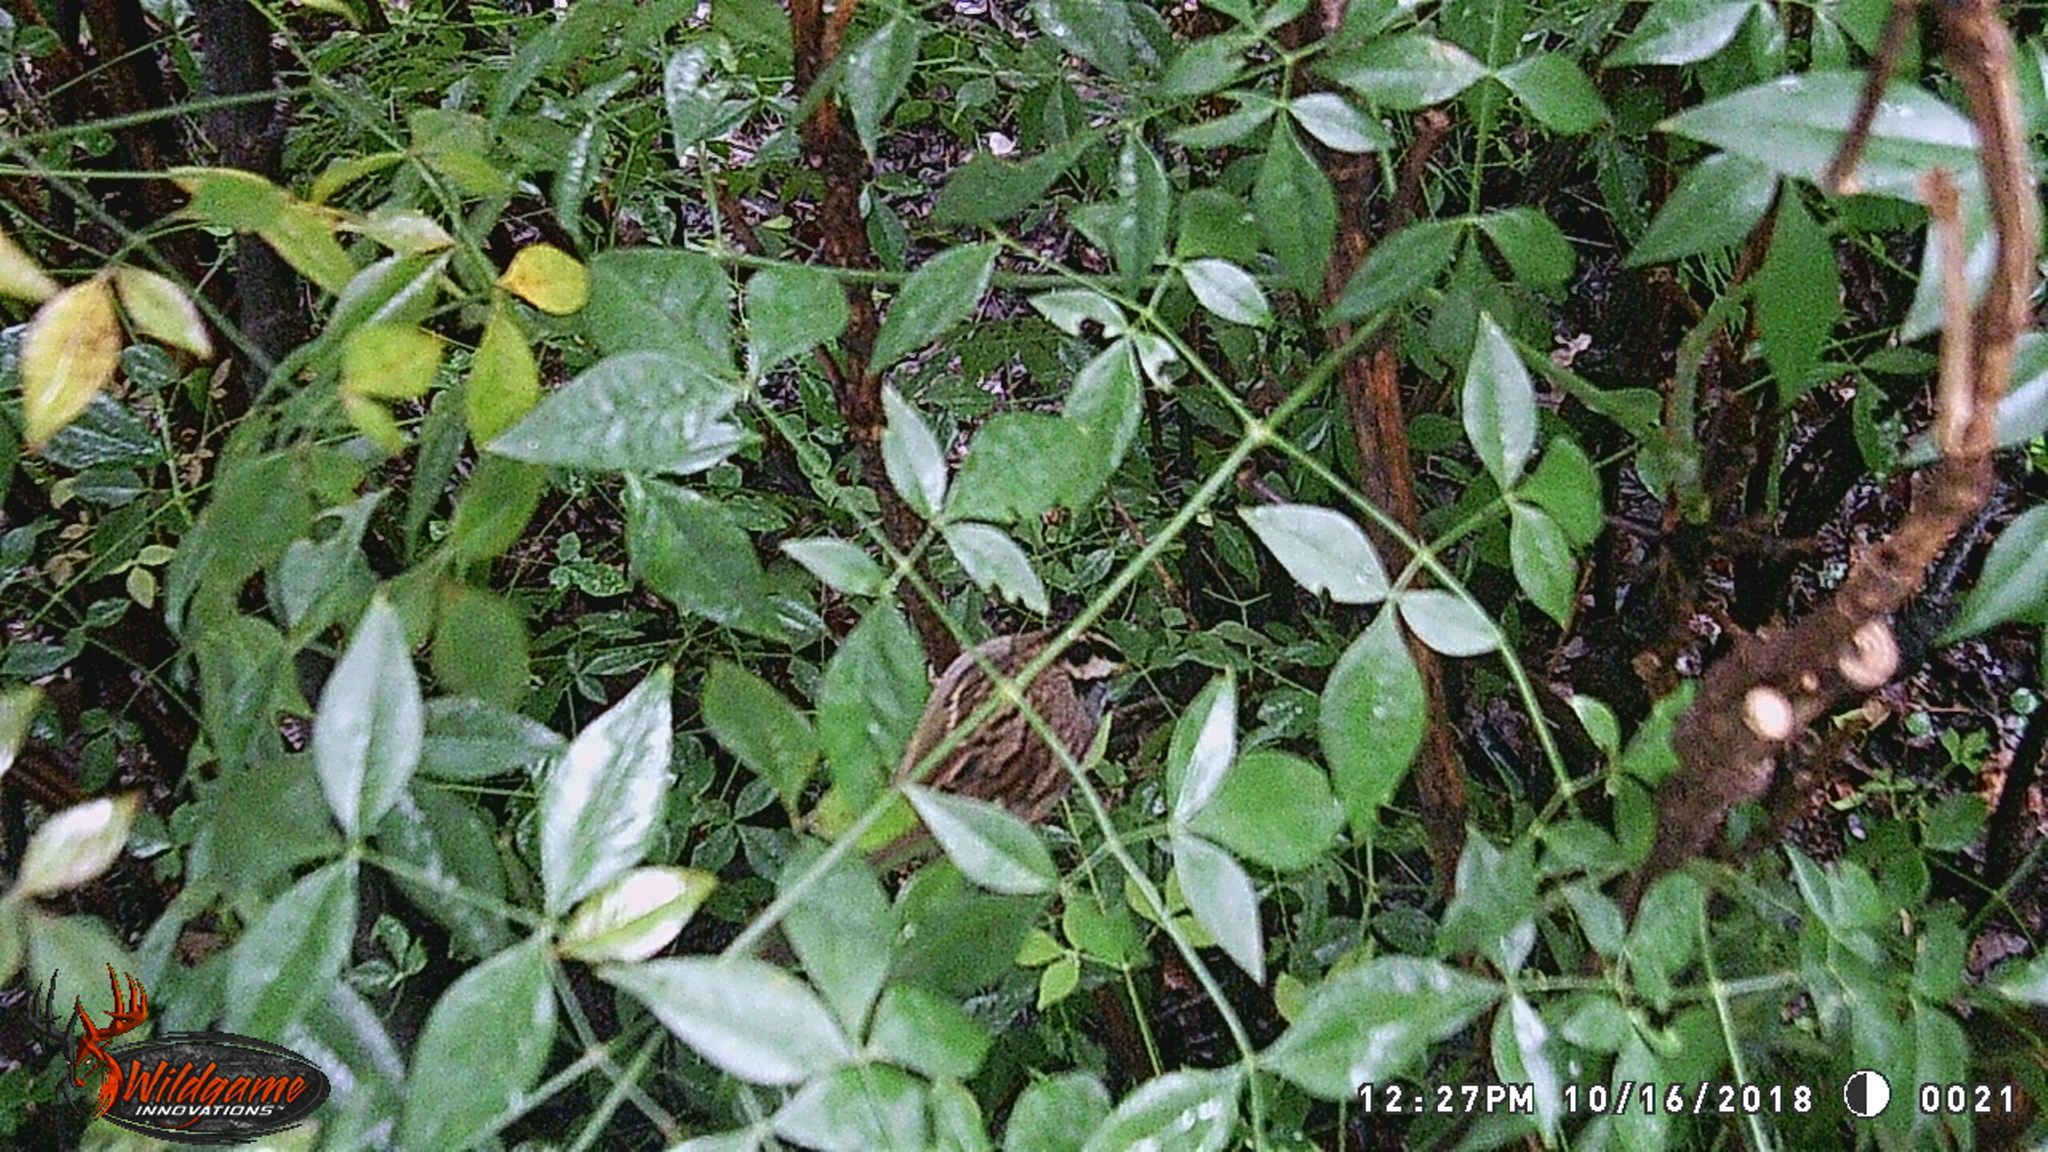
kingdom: Animalia
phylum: Chordata
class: Aves
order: Passeriformes
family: Passerellidae
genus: Zonotrichia
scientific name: Zonotrichia albicollis
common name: White-throated sparrow
